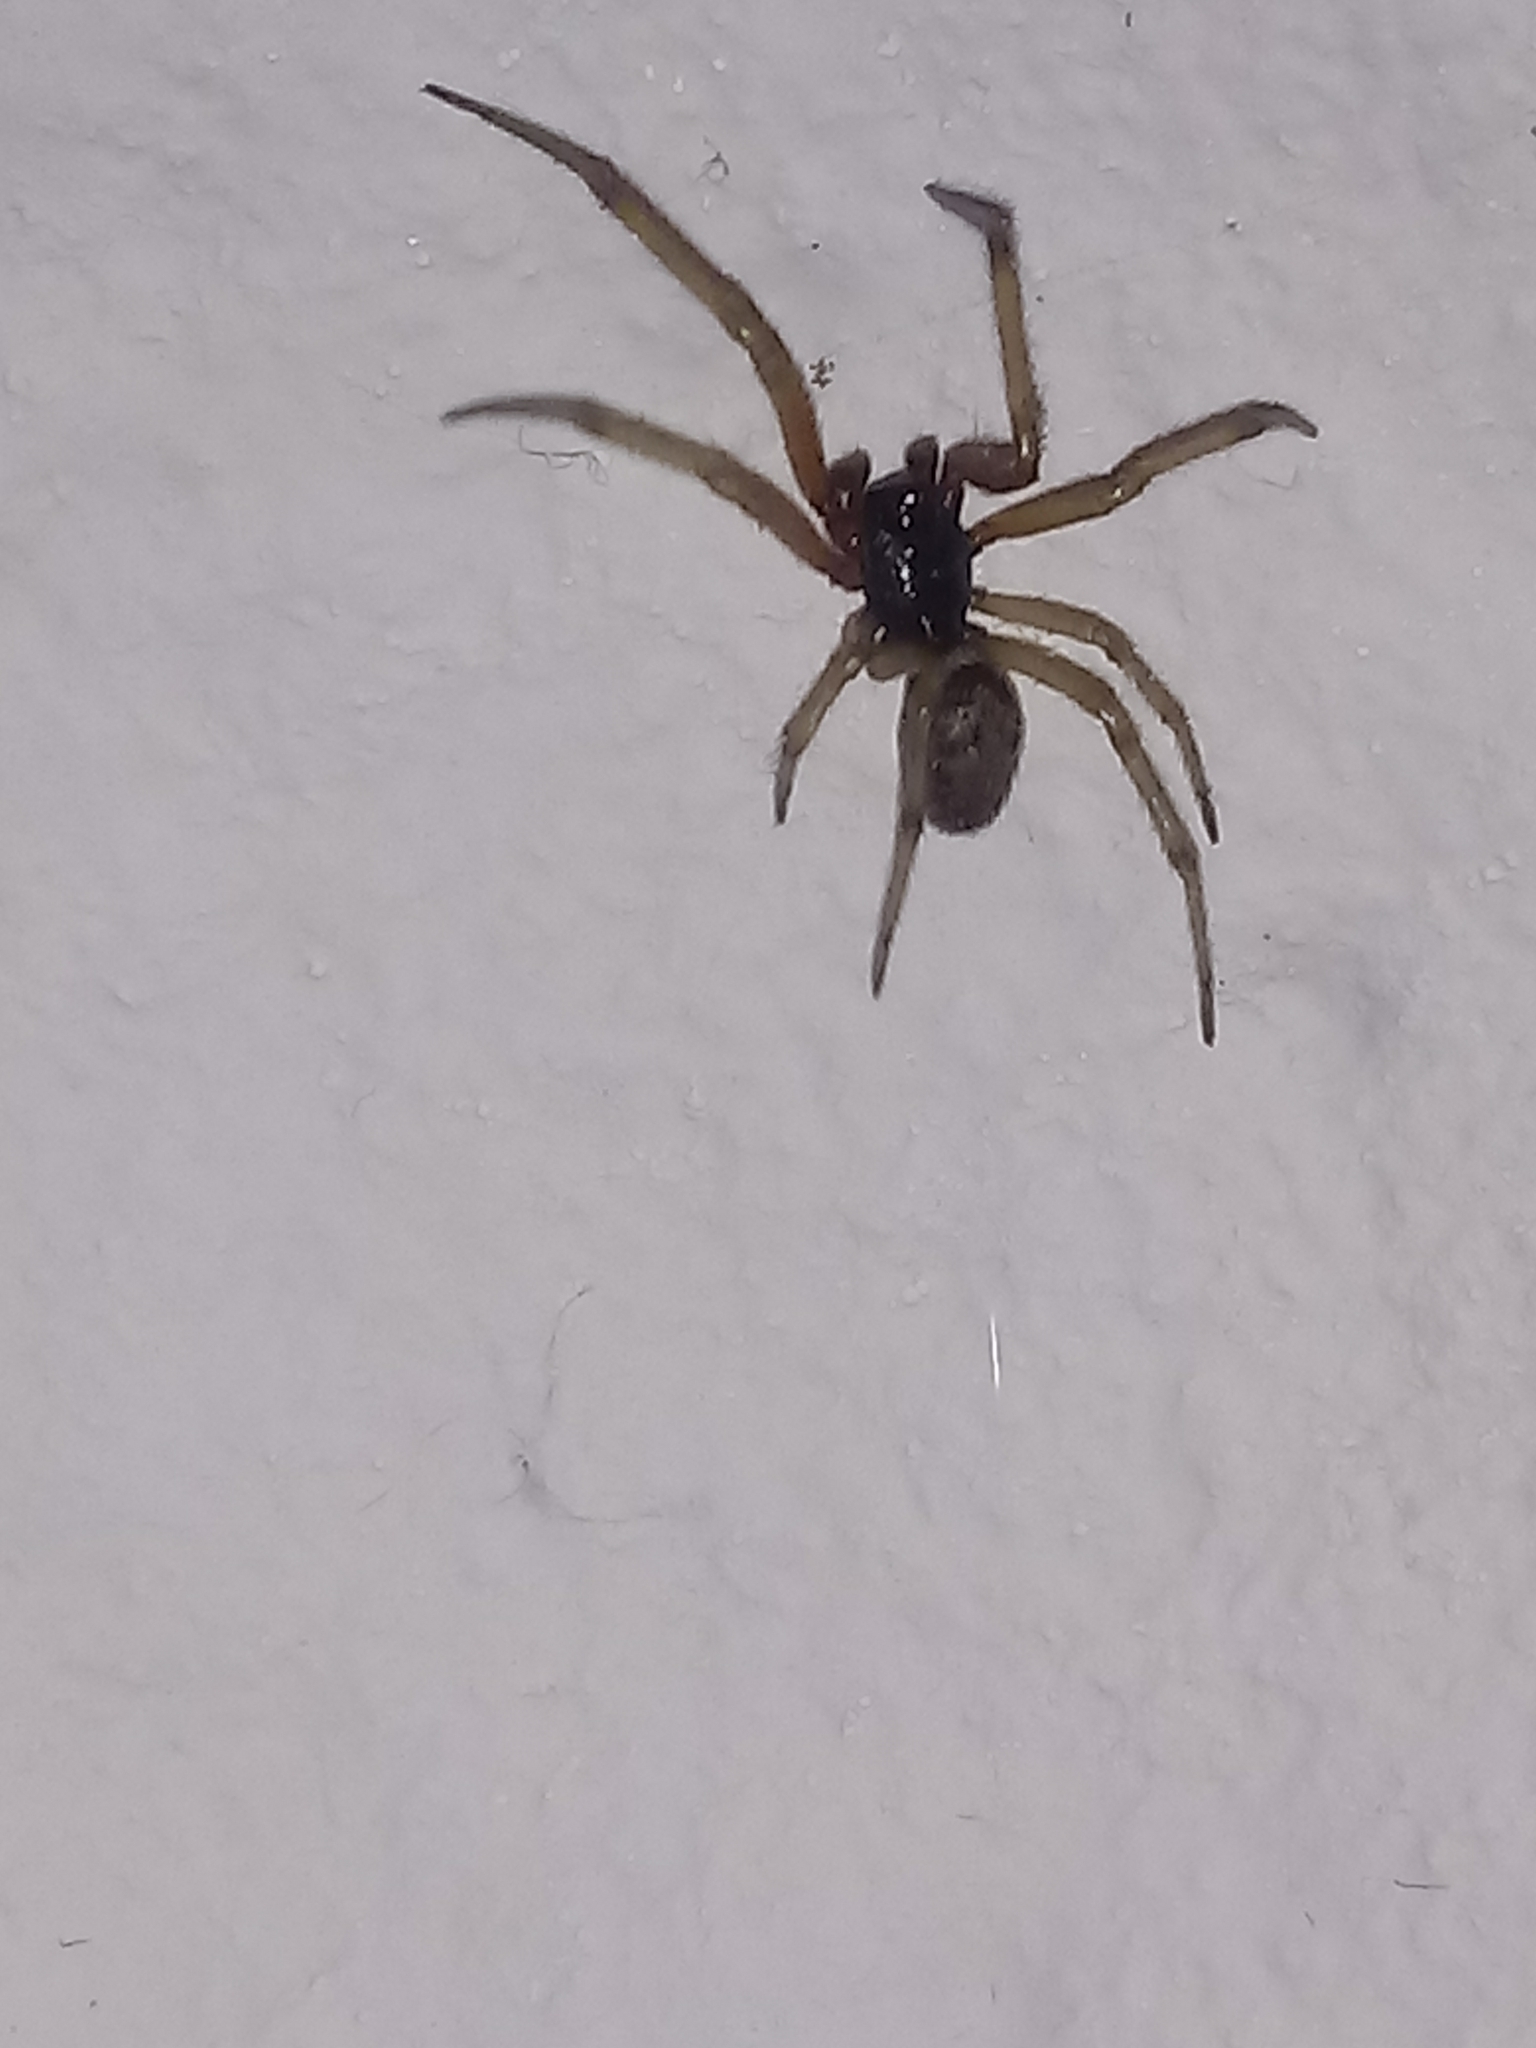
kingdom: Animalia
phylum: Arthropoda
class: Arachnida
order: Araneae
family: Theridiidae
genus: Steatoda
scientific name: Steatoda nobilis
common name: Cobweb weaver
